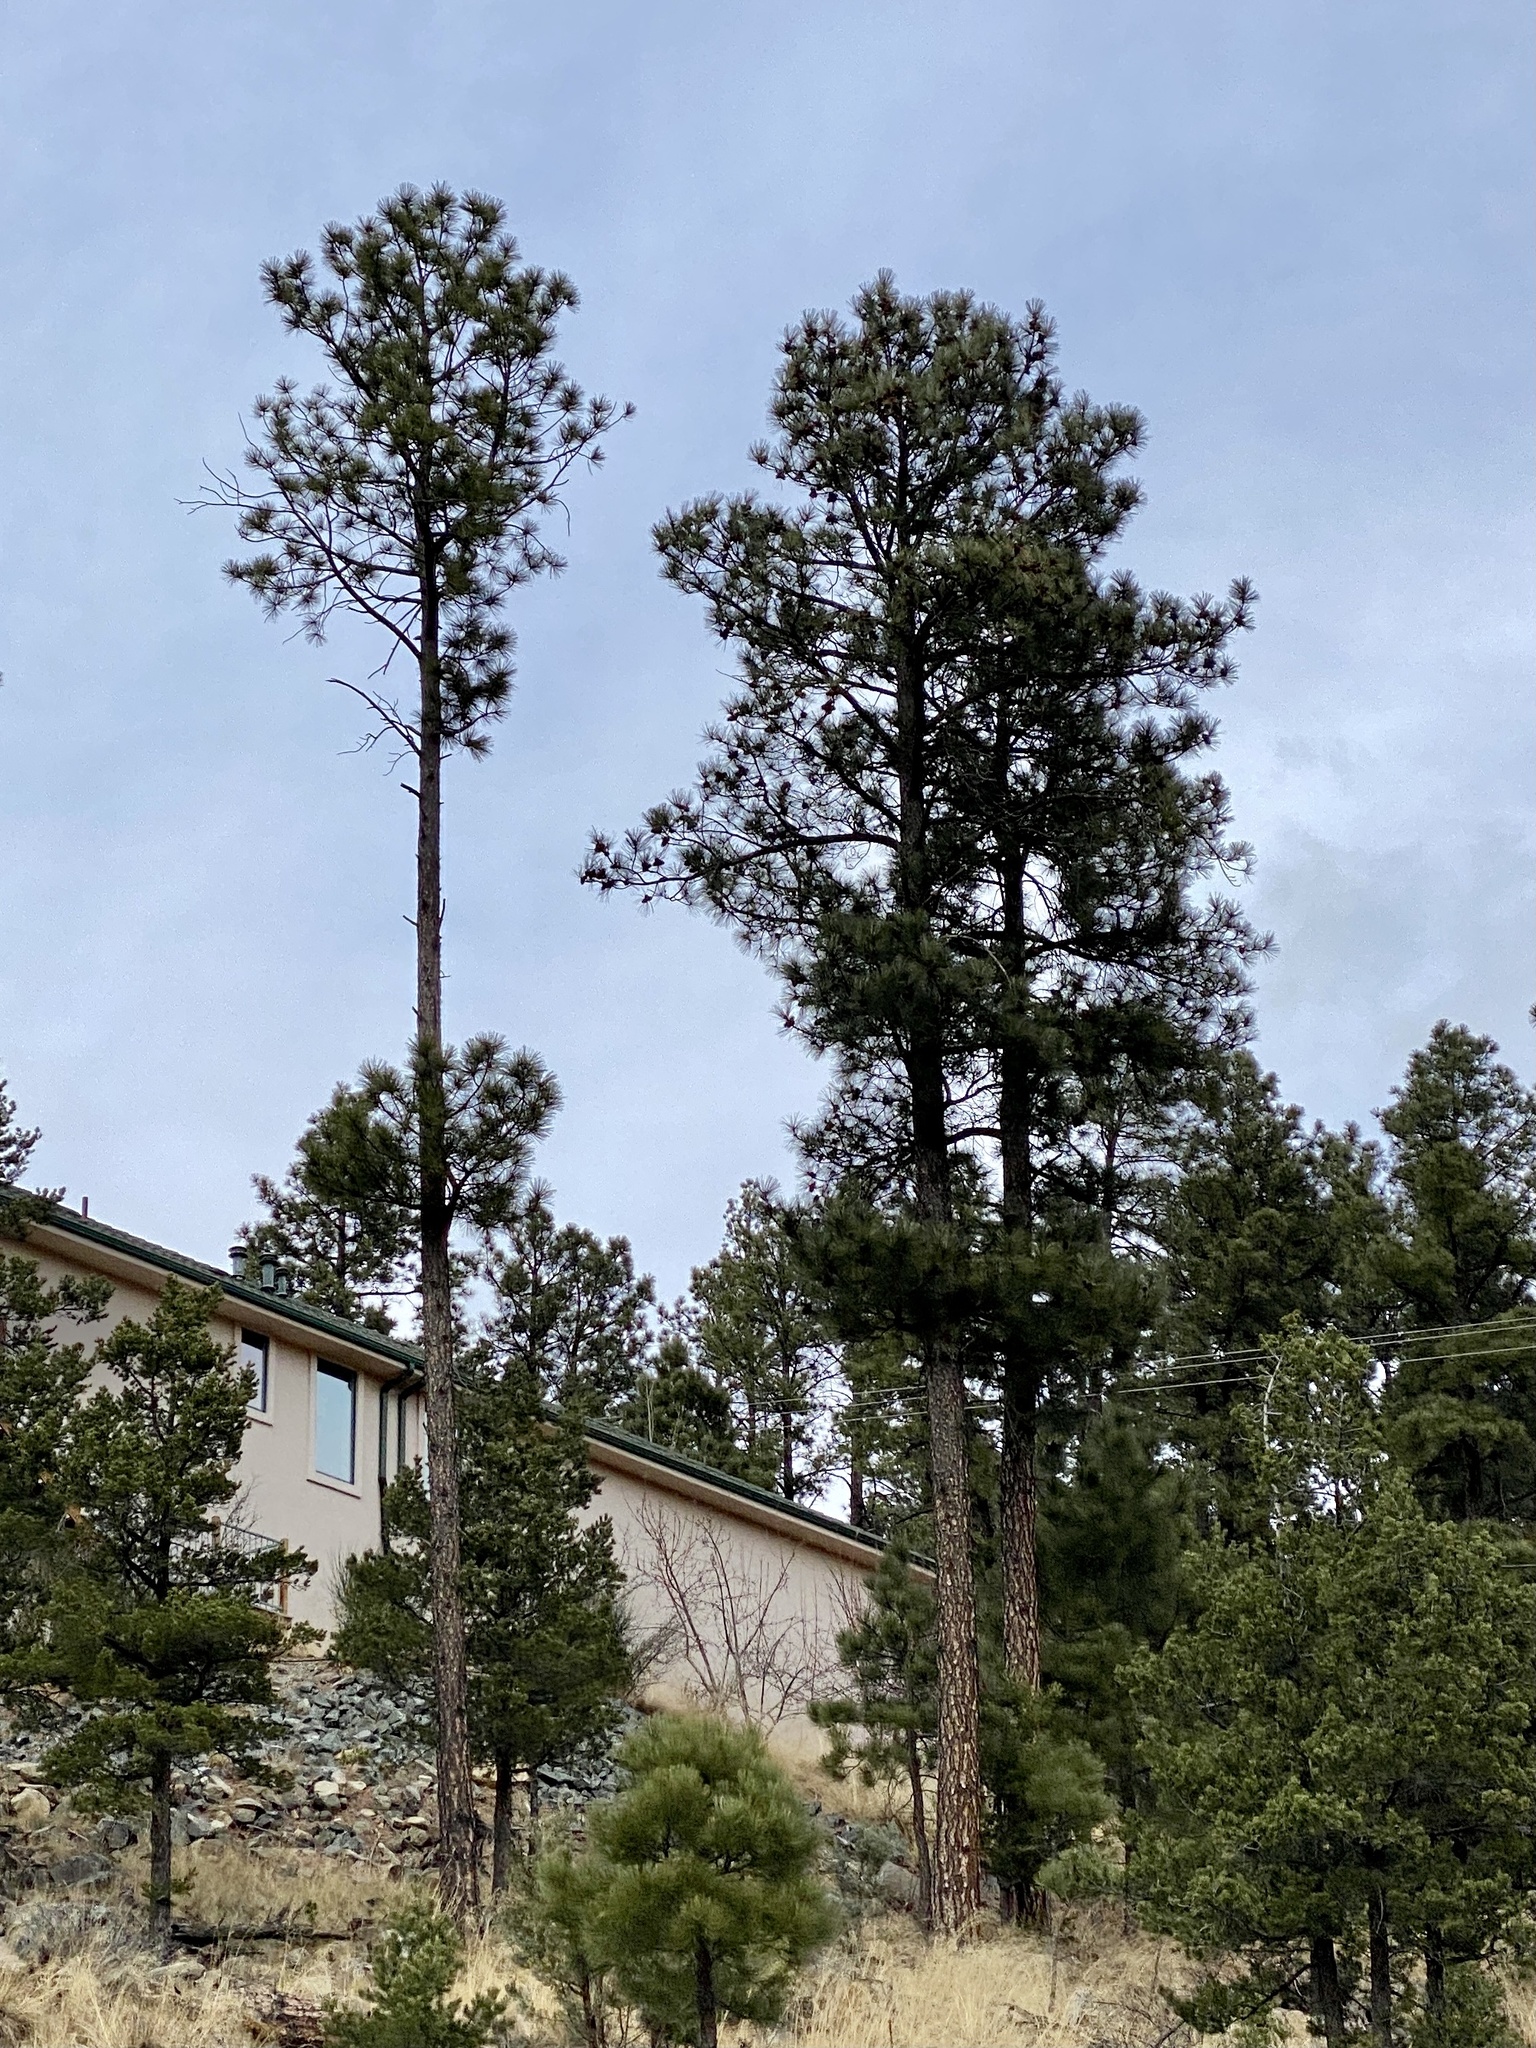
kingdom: Plantae
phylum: Tracheophyta
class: Pinopsida
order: Pinales
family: Pinaceae
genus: Pinus
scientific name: Pinus ponderosa
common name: Western yellow-pine
